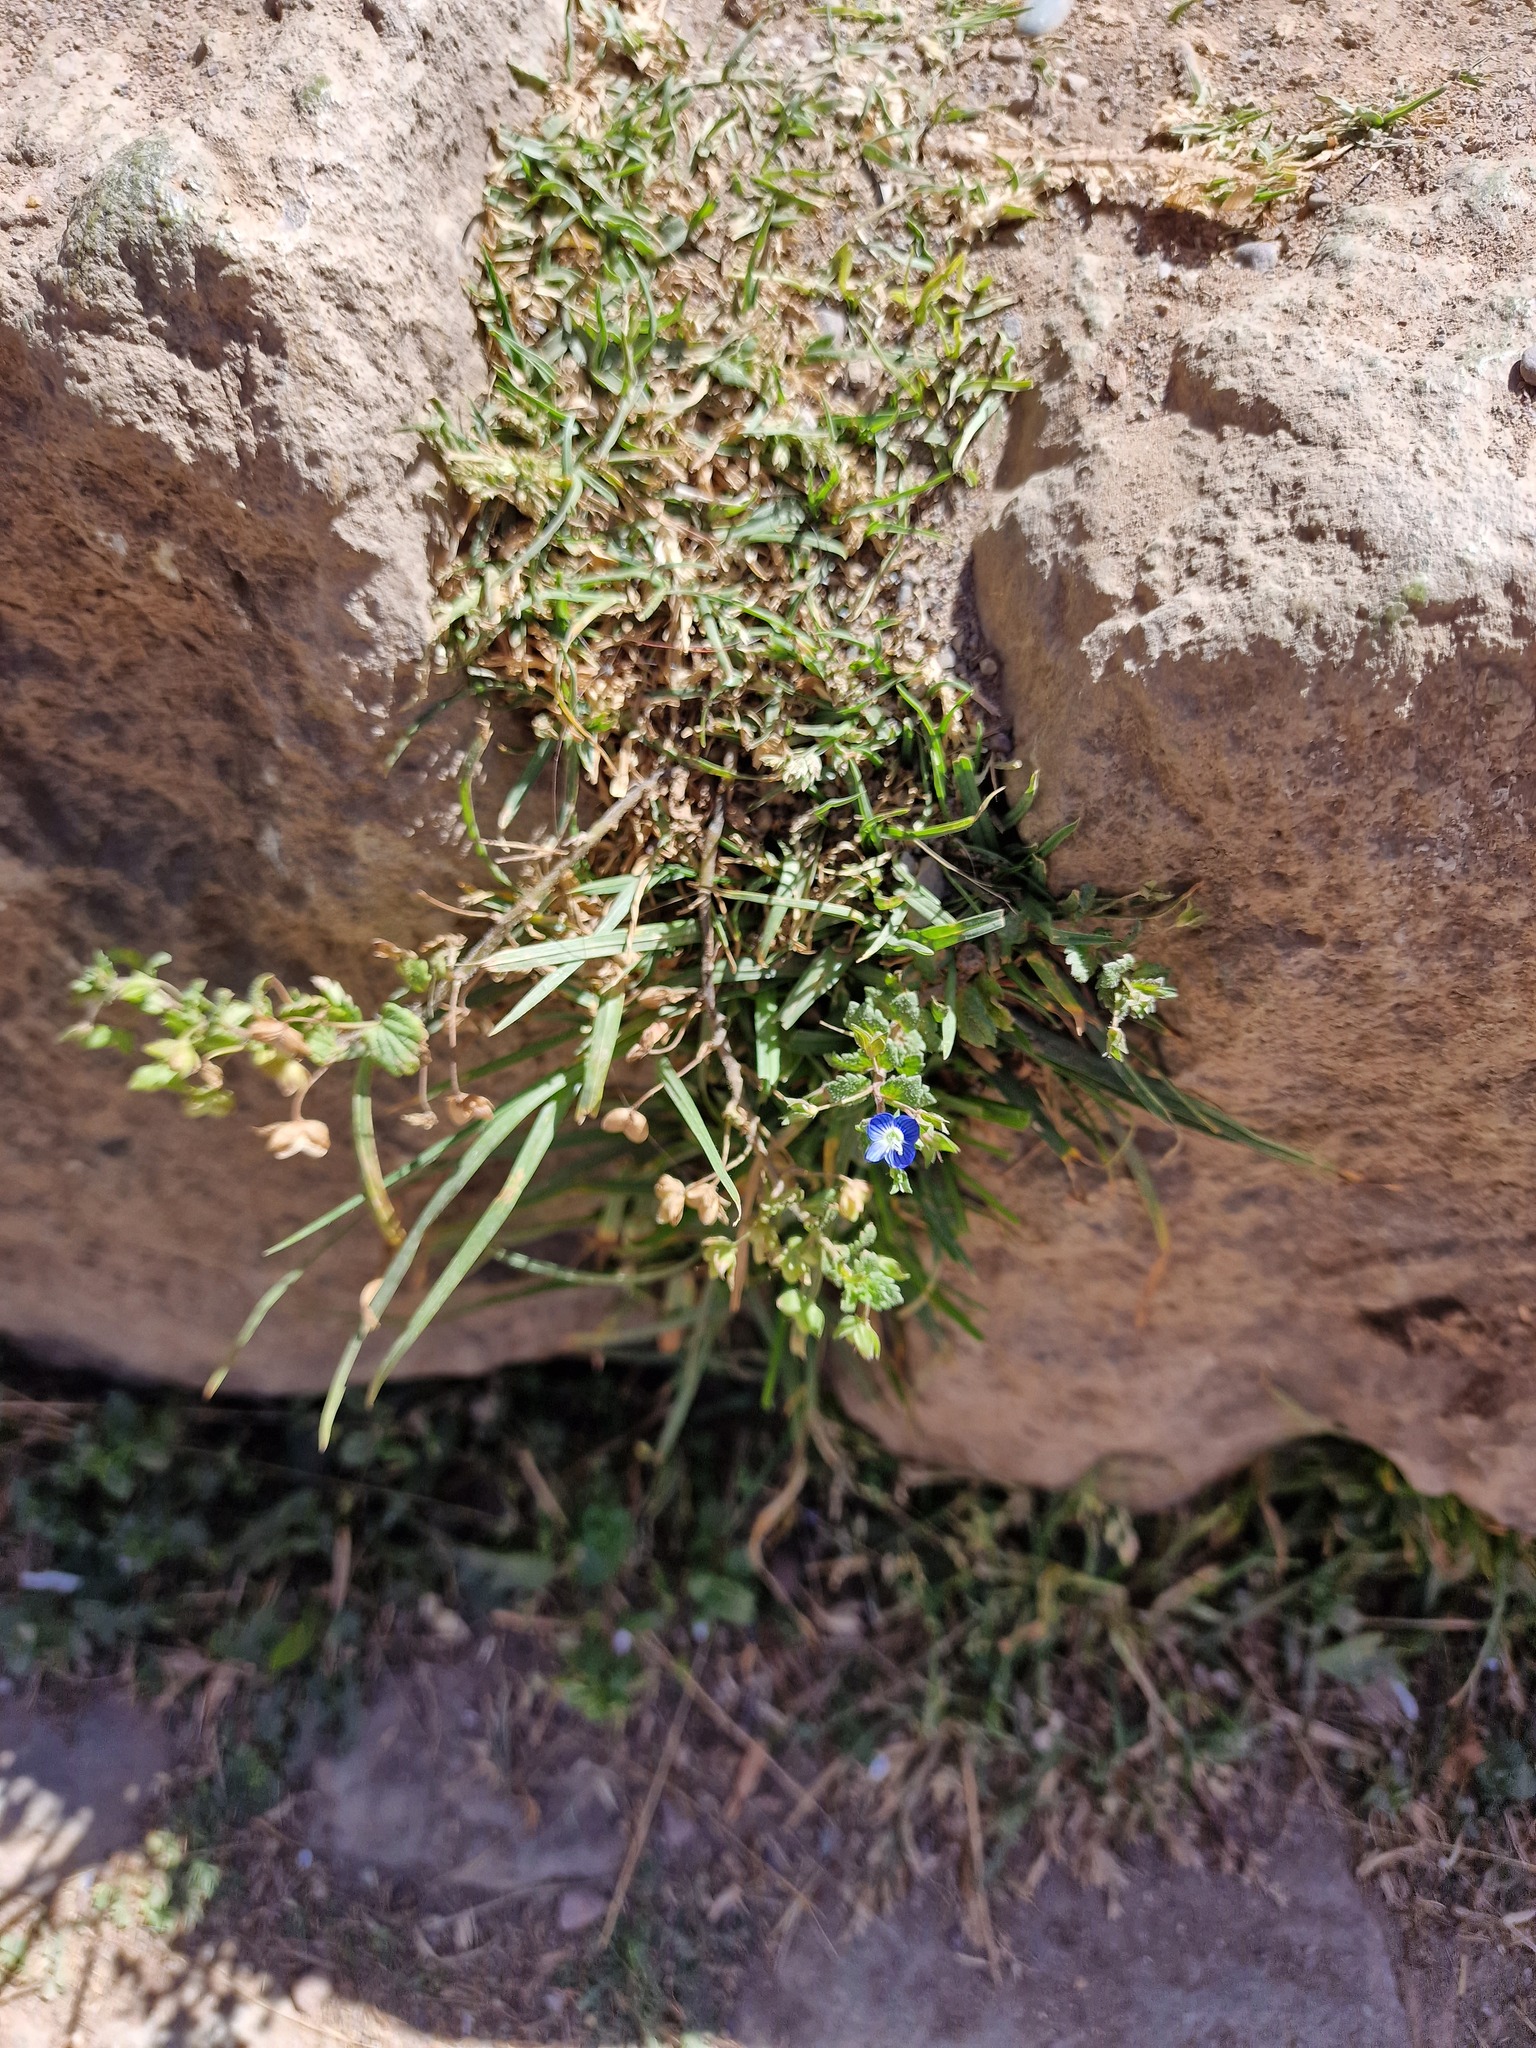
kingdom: Plantae
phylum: Tracheophyta
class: Magnoliopsida
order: Lamiales
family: Plantaginaceae
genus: Veronica
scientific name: Veronica persica
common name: Common field-speedwell
